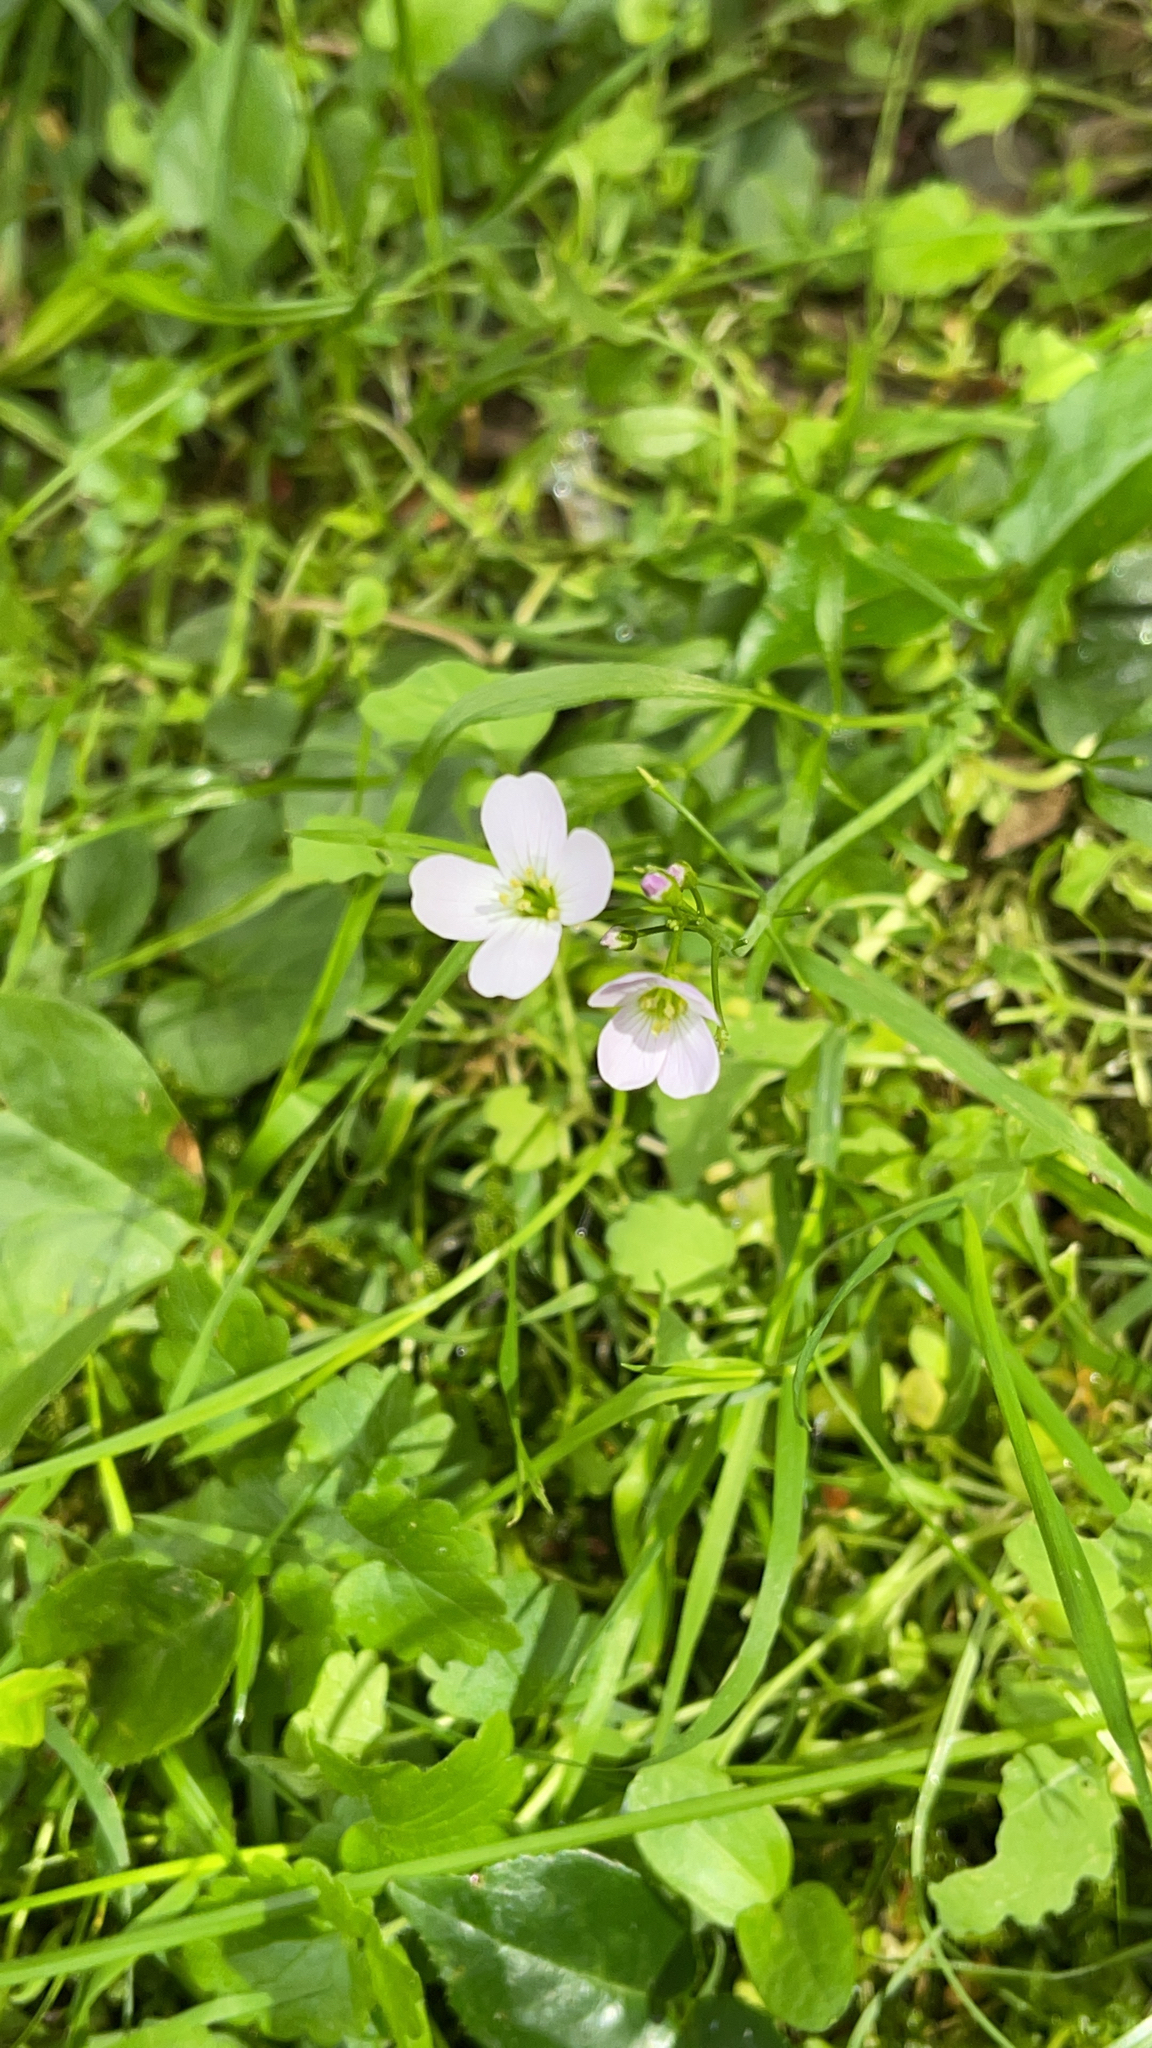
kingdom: Plantae
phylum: Tracheophyta
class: Magnoliopsida
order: Brassicales
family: Brassicaceae
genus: Cardamine
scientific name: Cardamine pratensis
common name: Cuckoo flower
